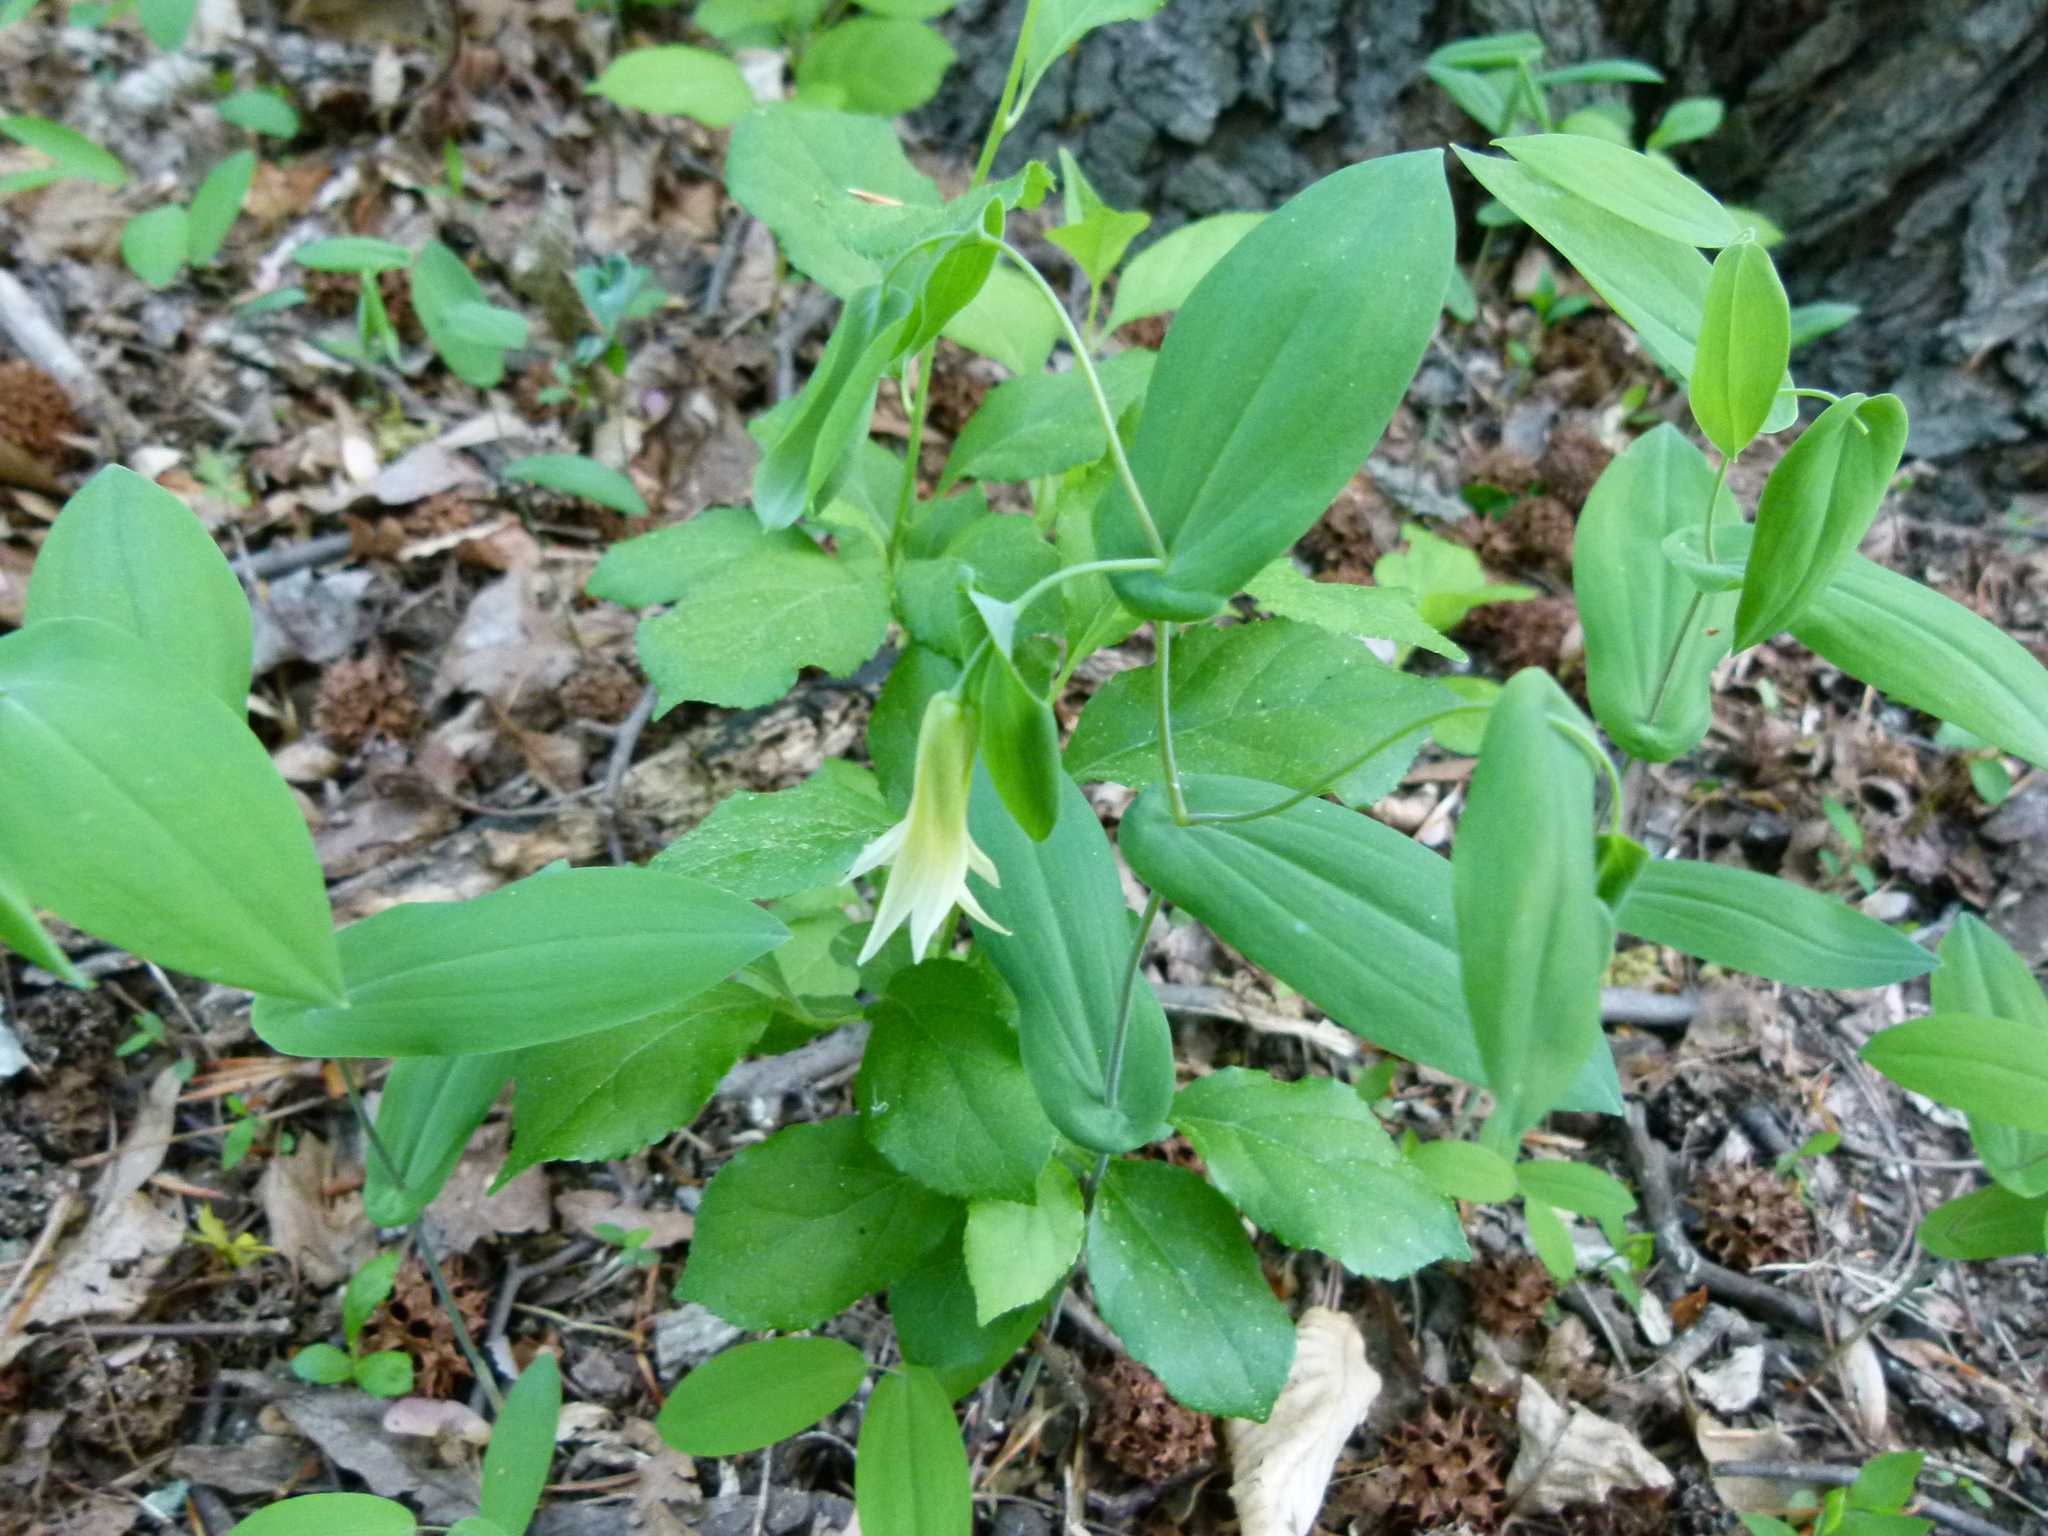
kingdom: Plantae
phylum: Tracheophyta
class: Liliopsida
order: Liliales
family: Colchicaceae
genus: Uvularia
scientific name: Uvularia perfoliata
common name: Perfoliate bellwort
